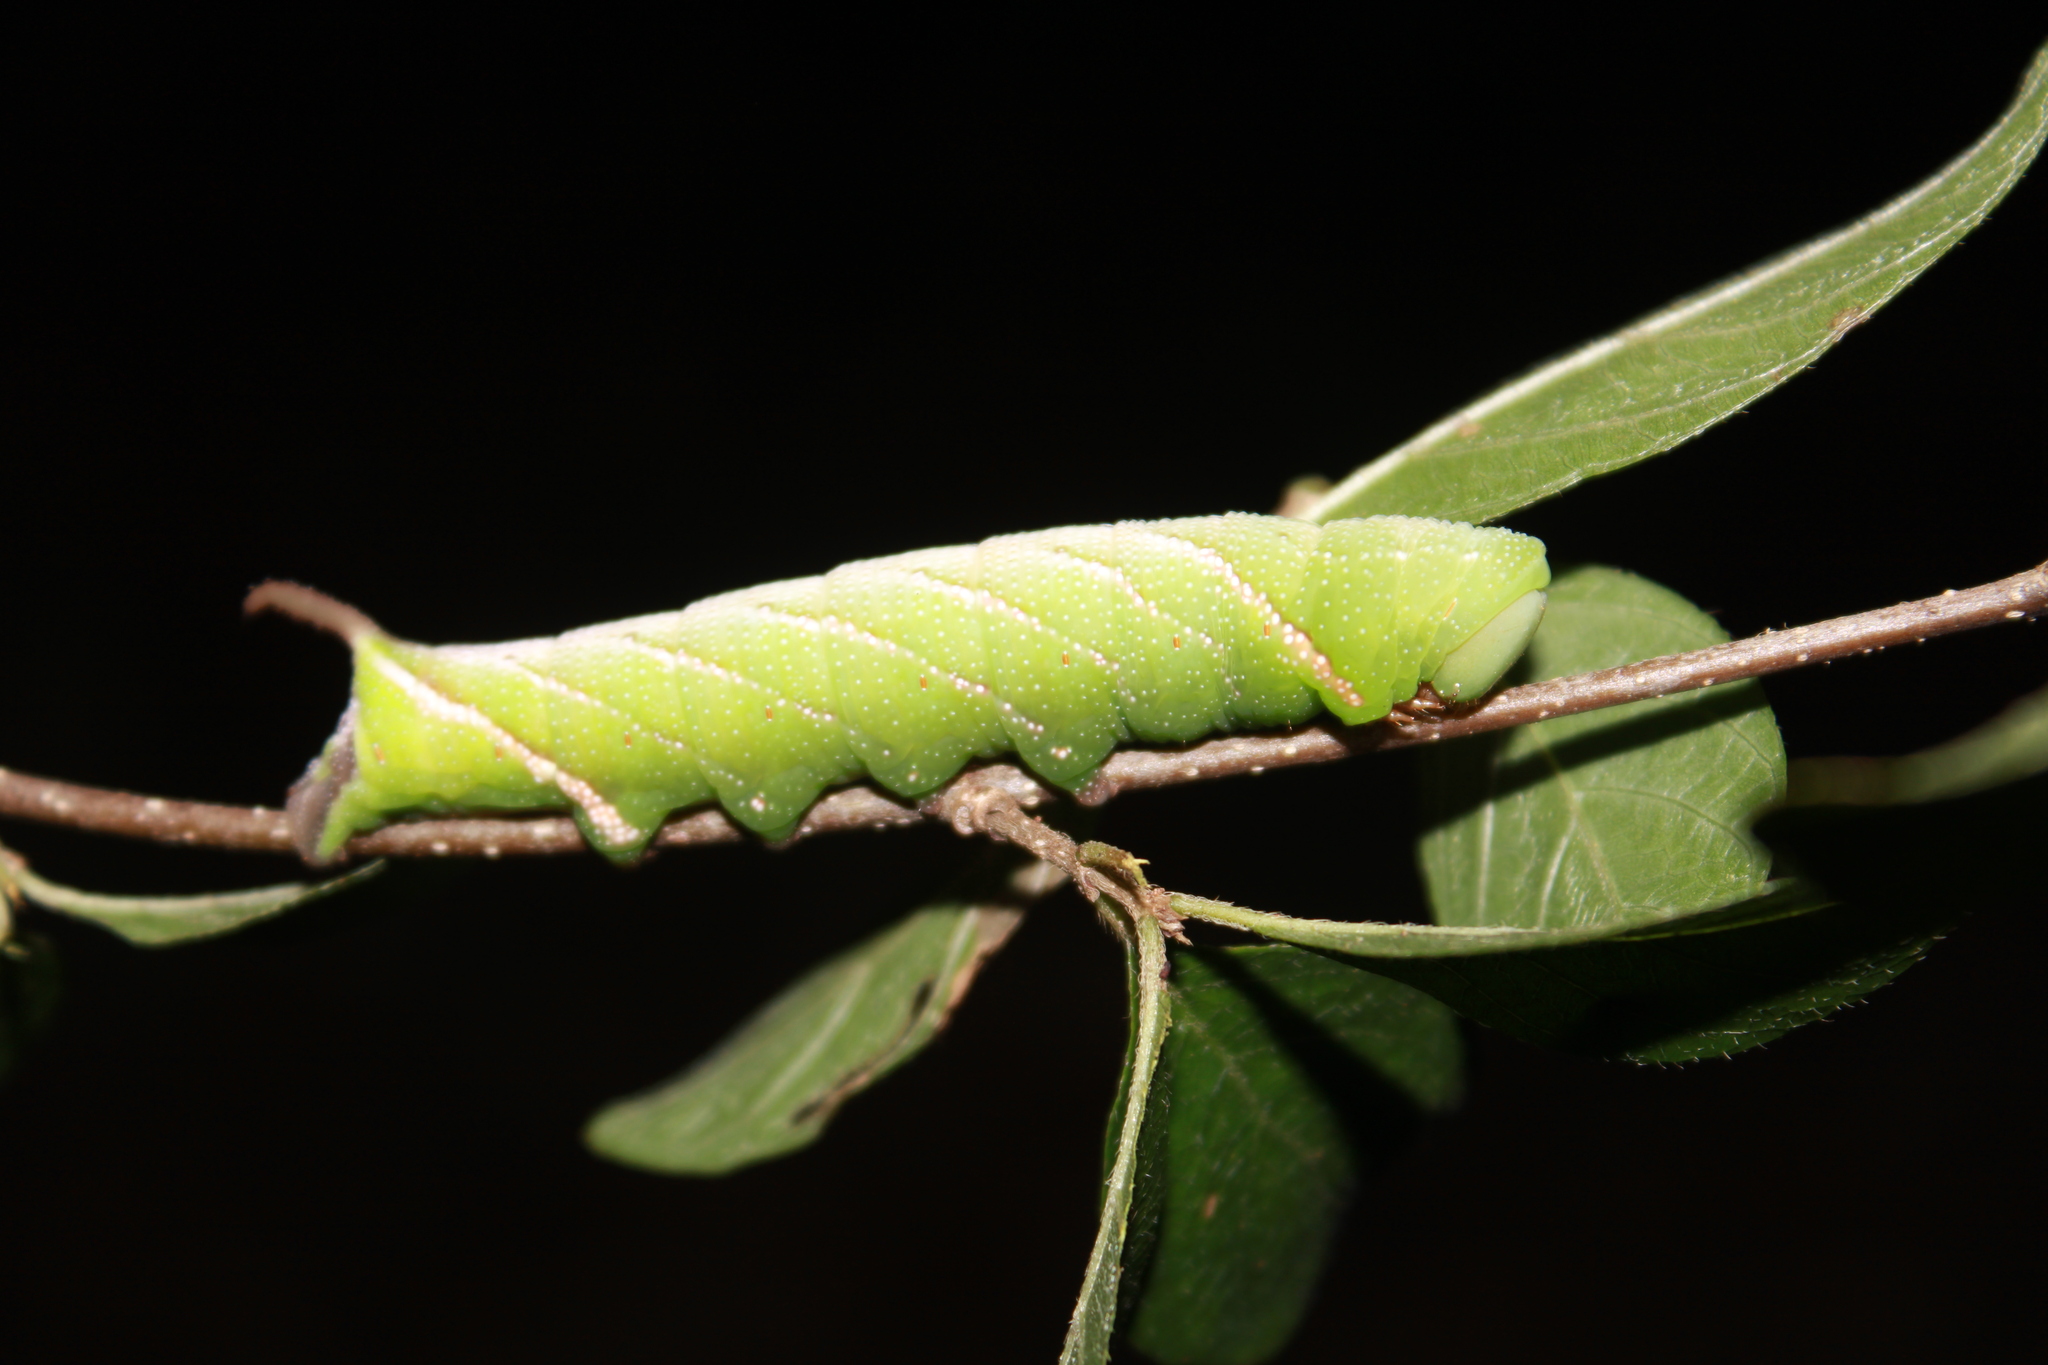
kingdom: Animalia
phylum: Arthropoda
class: Insecta
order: Lepidoptera
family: Sphingidae
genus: Eupyrrhoglossum
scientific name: Eupyrrhoglossum sagra
